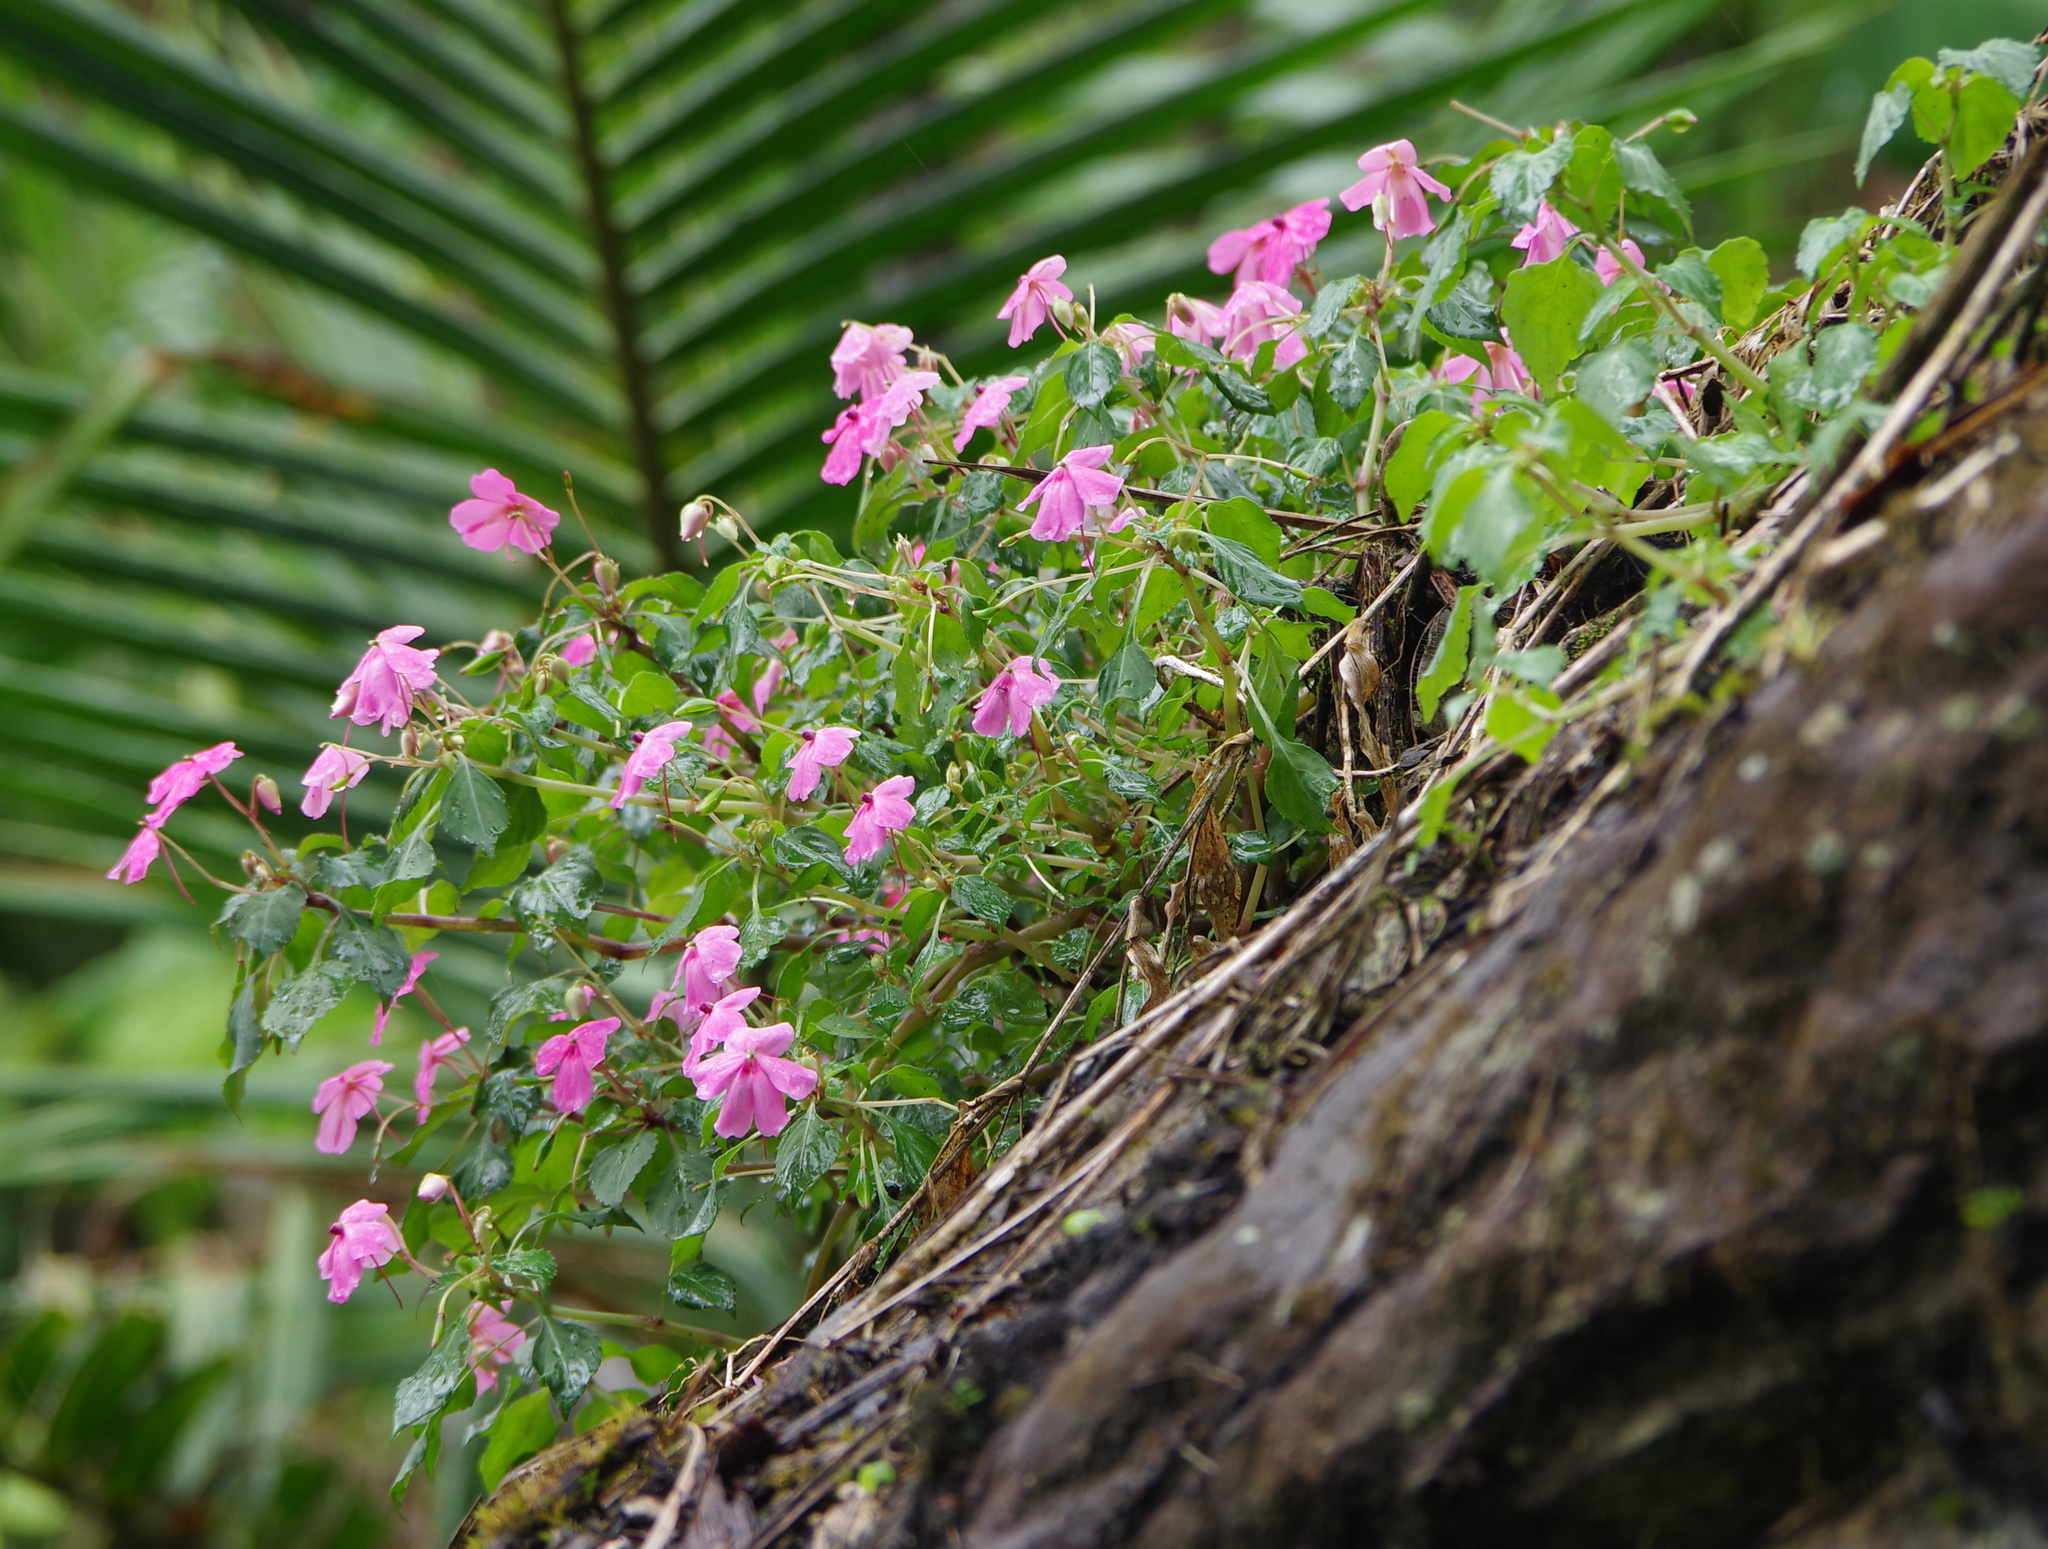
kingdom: Plantae
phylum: Tracheophyta
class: Magnoliopsida
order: Ericales
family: Balsaminaceae
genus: Impatiens
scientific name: Impatiens walleriana
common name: Buzzy lizzy
